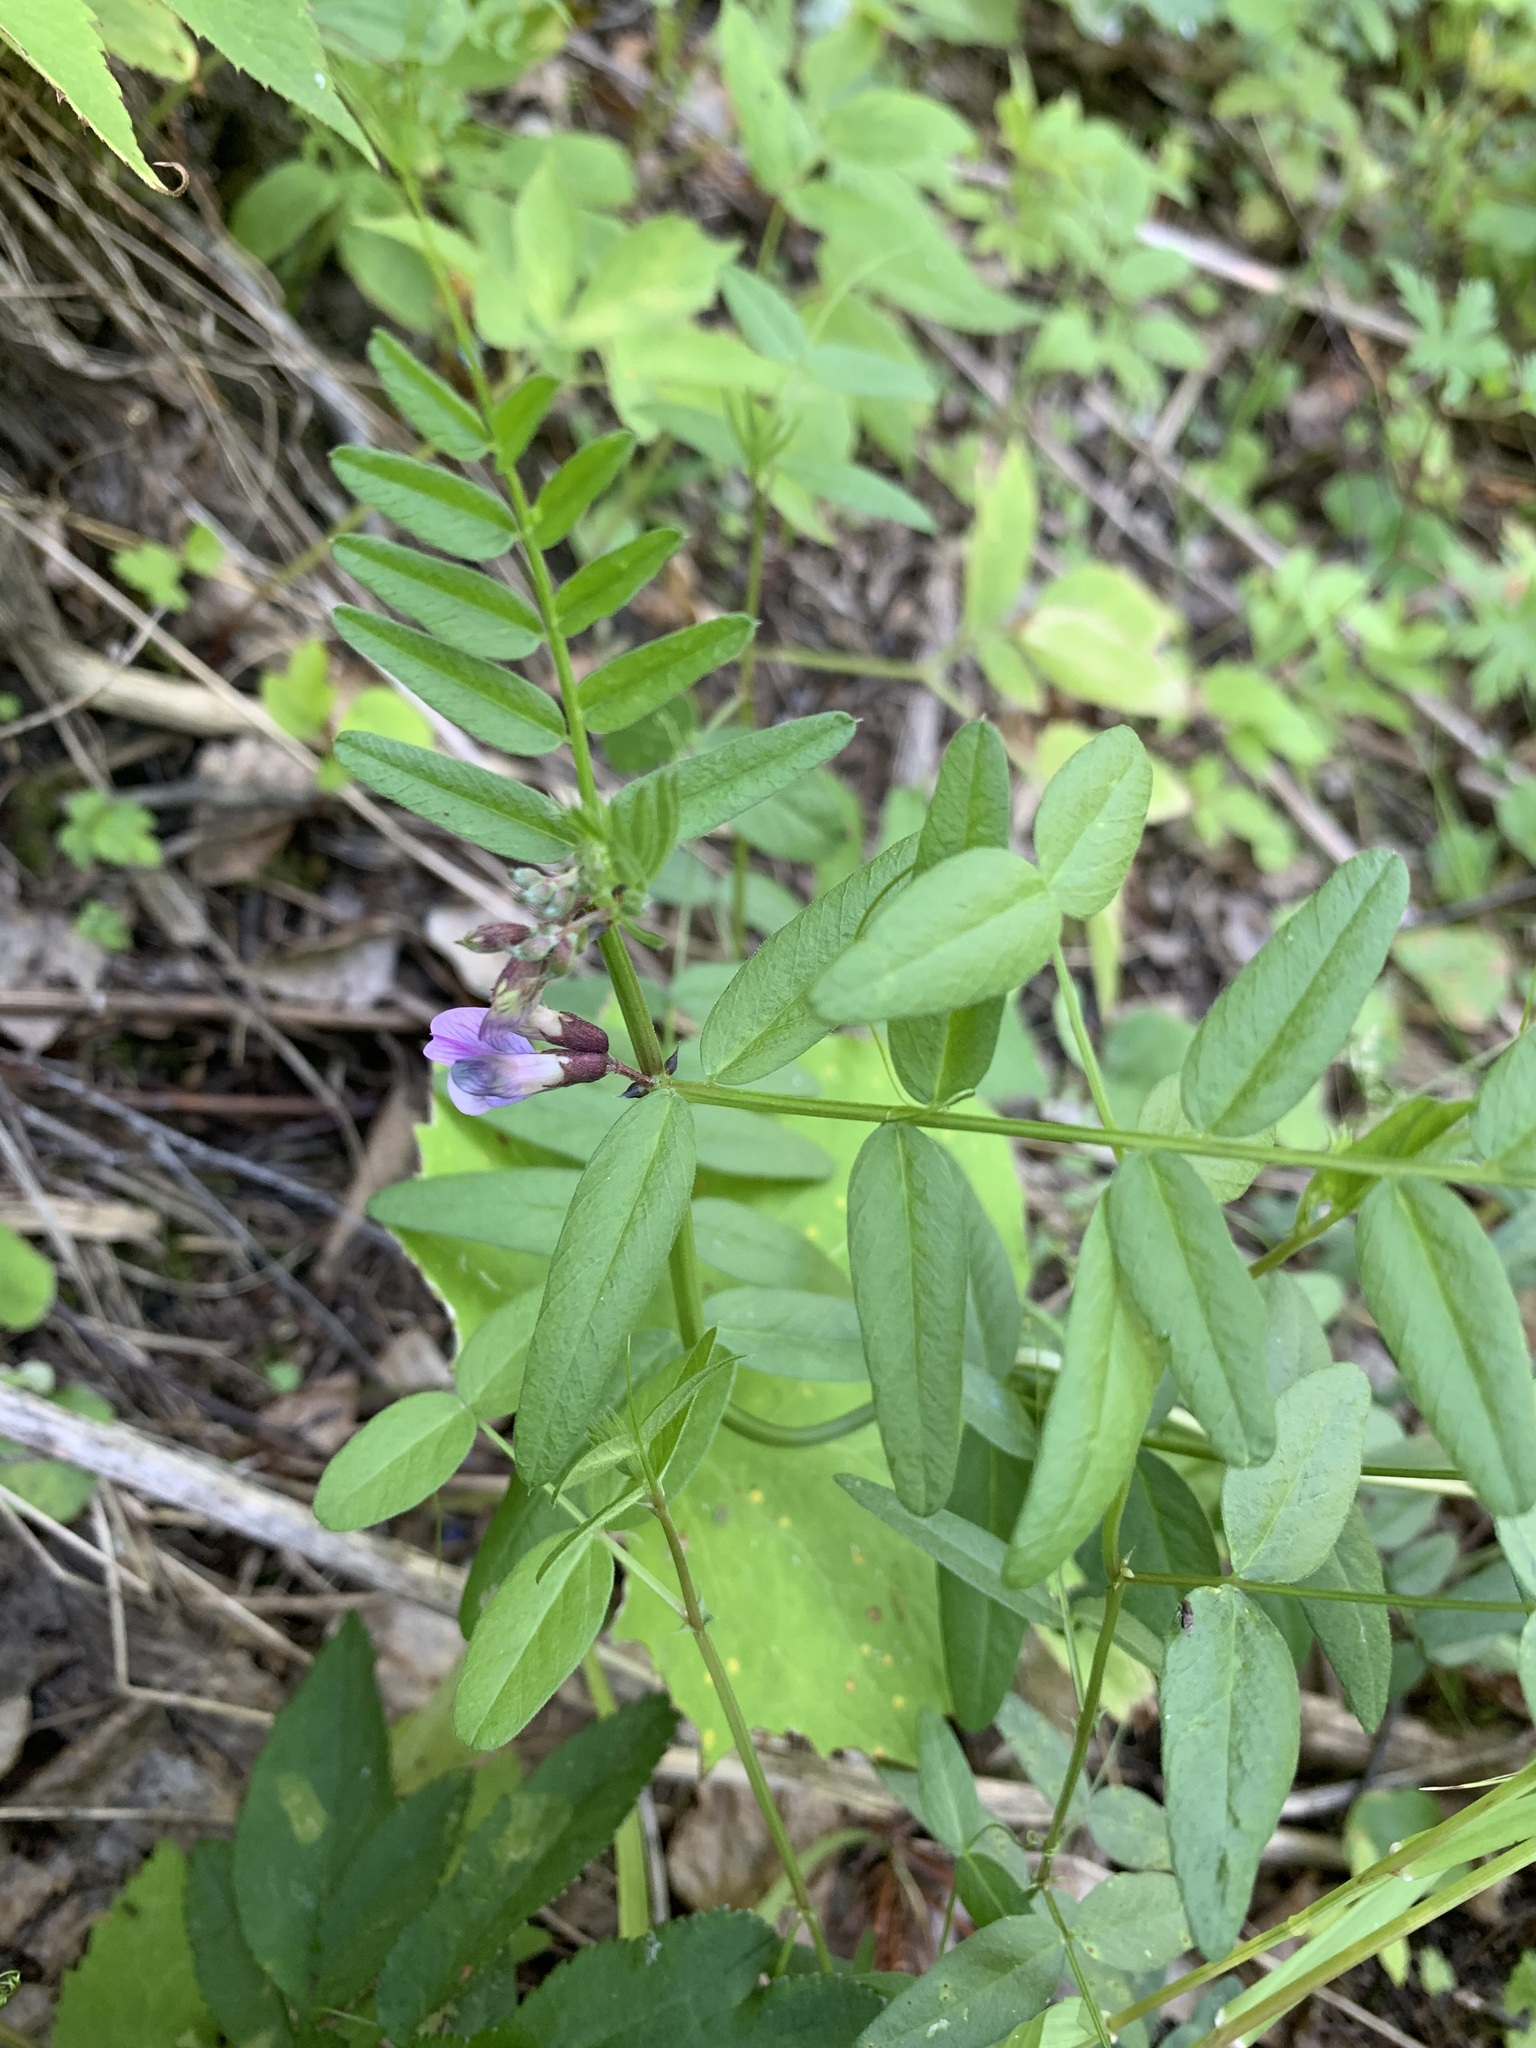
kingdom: Plantae
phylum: Tracheophyta
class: Magnoliopsida
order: Fabales
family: Fabaceae
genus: Vicia
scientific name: Vicia sepium
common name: Bush vetch
